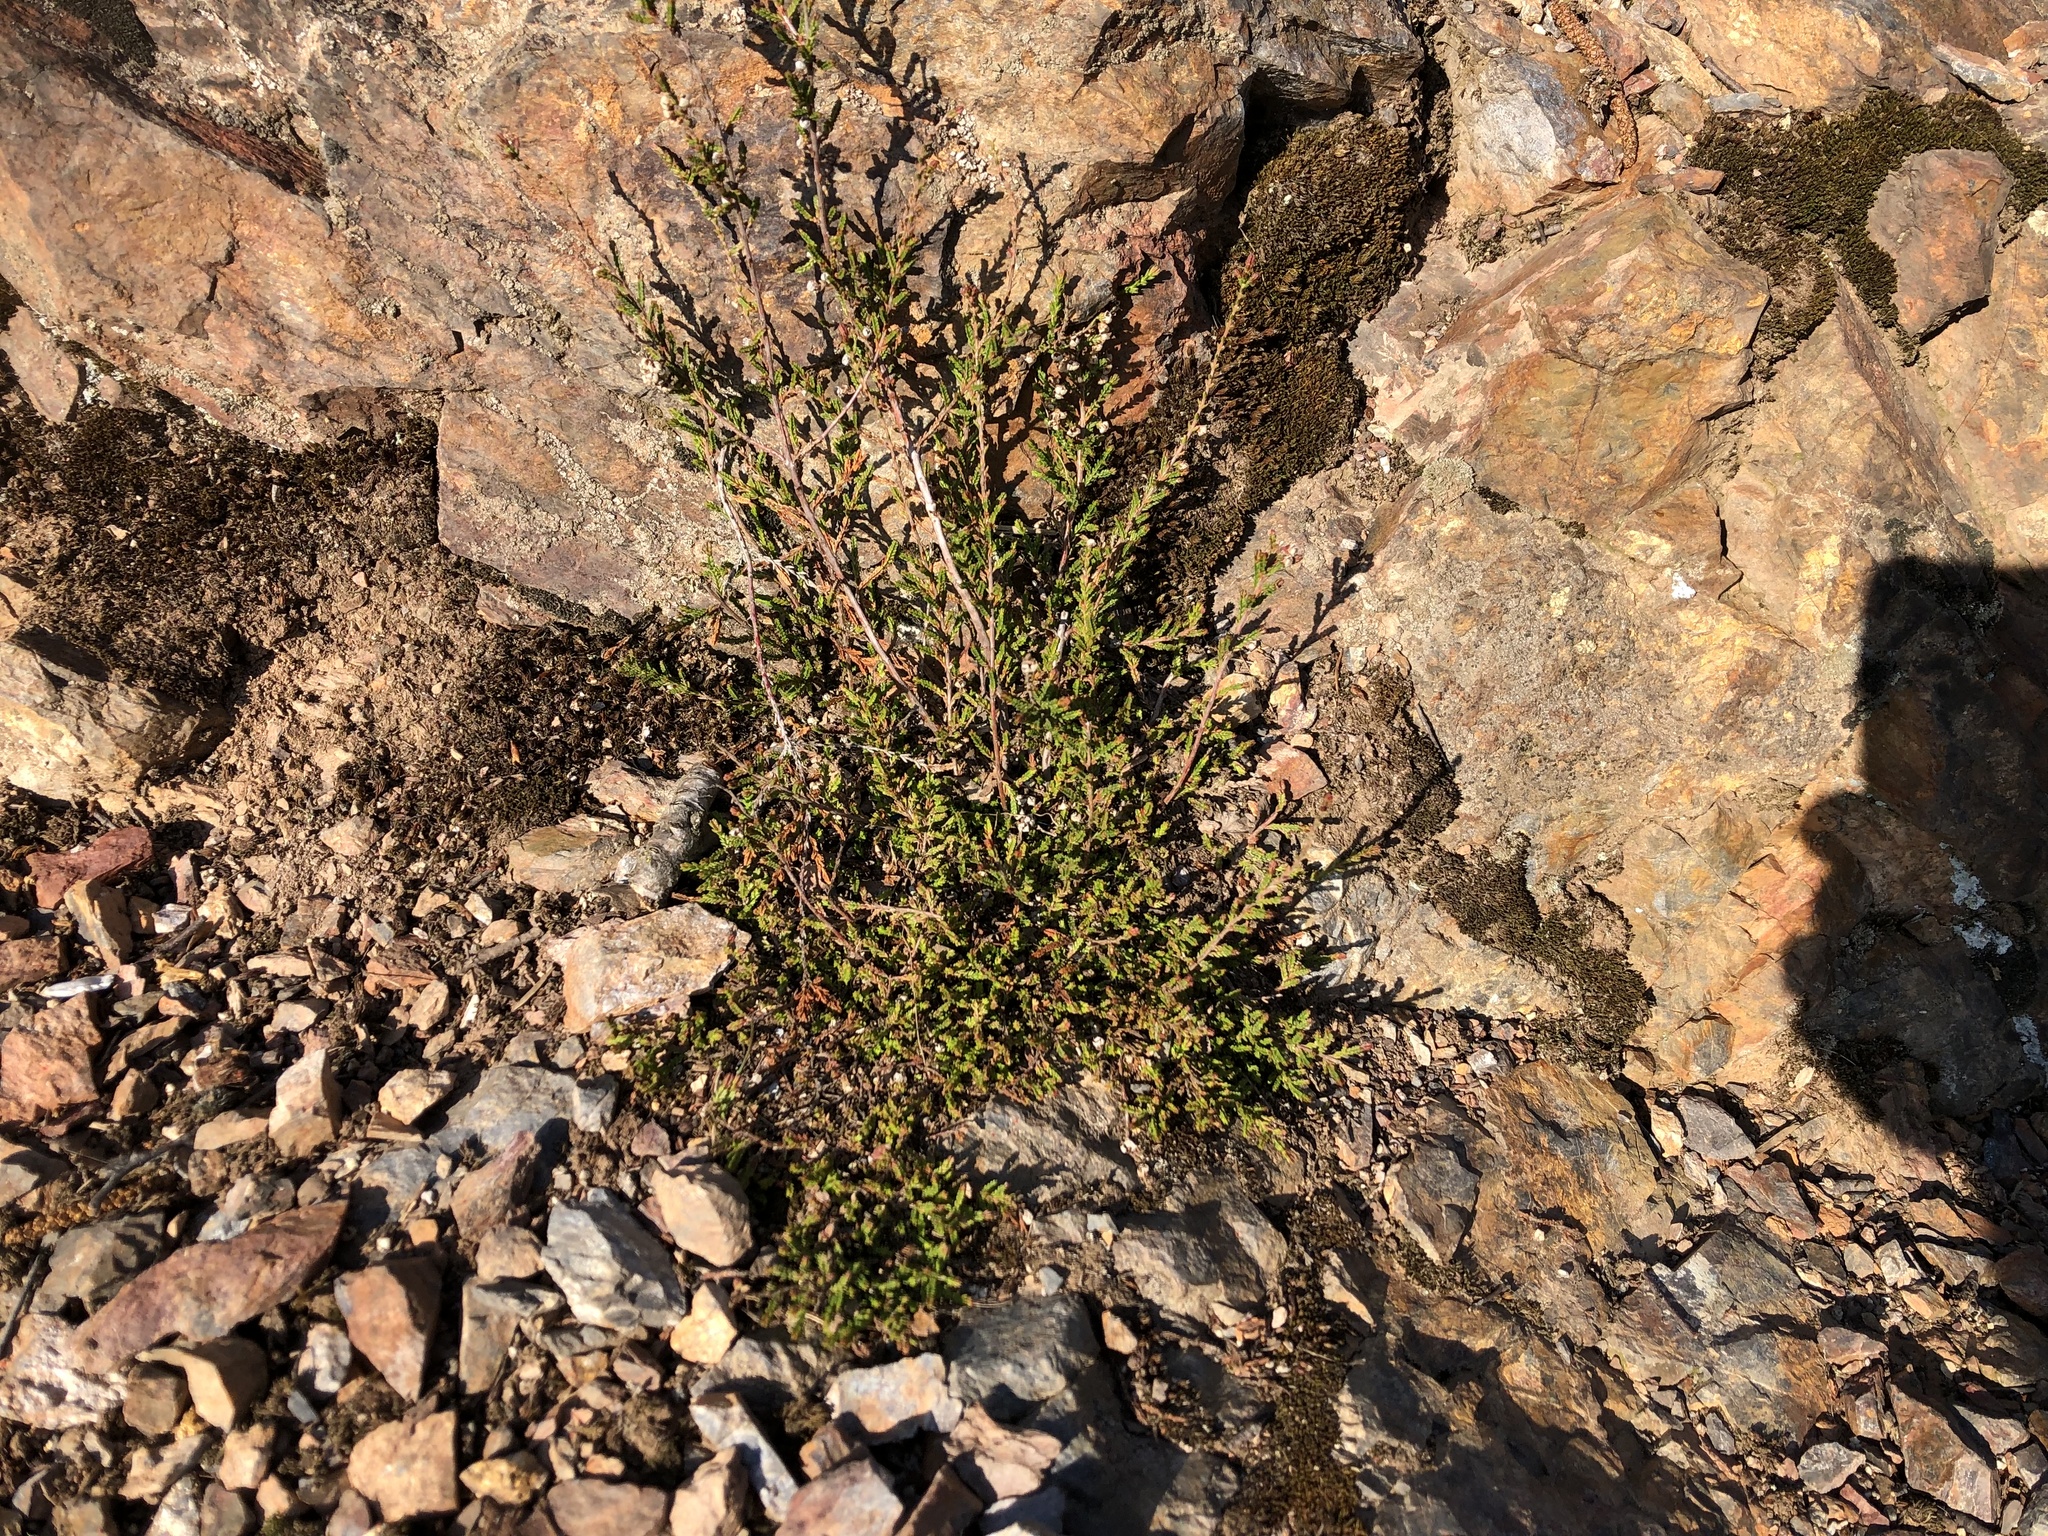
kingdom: Plantae
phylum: Tracheophyta
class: Magnoliopsida
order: Ericales
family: Ericaceae
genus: Calluna
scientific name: Calluna vulgaris
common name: Heather
